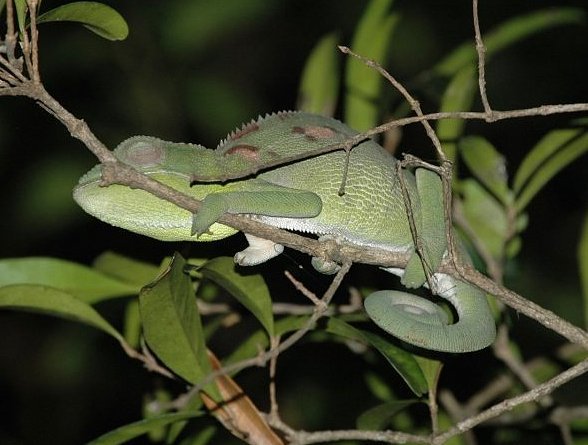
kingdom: Animalia
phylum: Chordata
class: Squamata
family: Chamaeleonidae
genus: Furcifer
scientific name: Furcifer oustaleti
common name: Oustalet's chameleon
